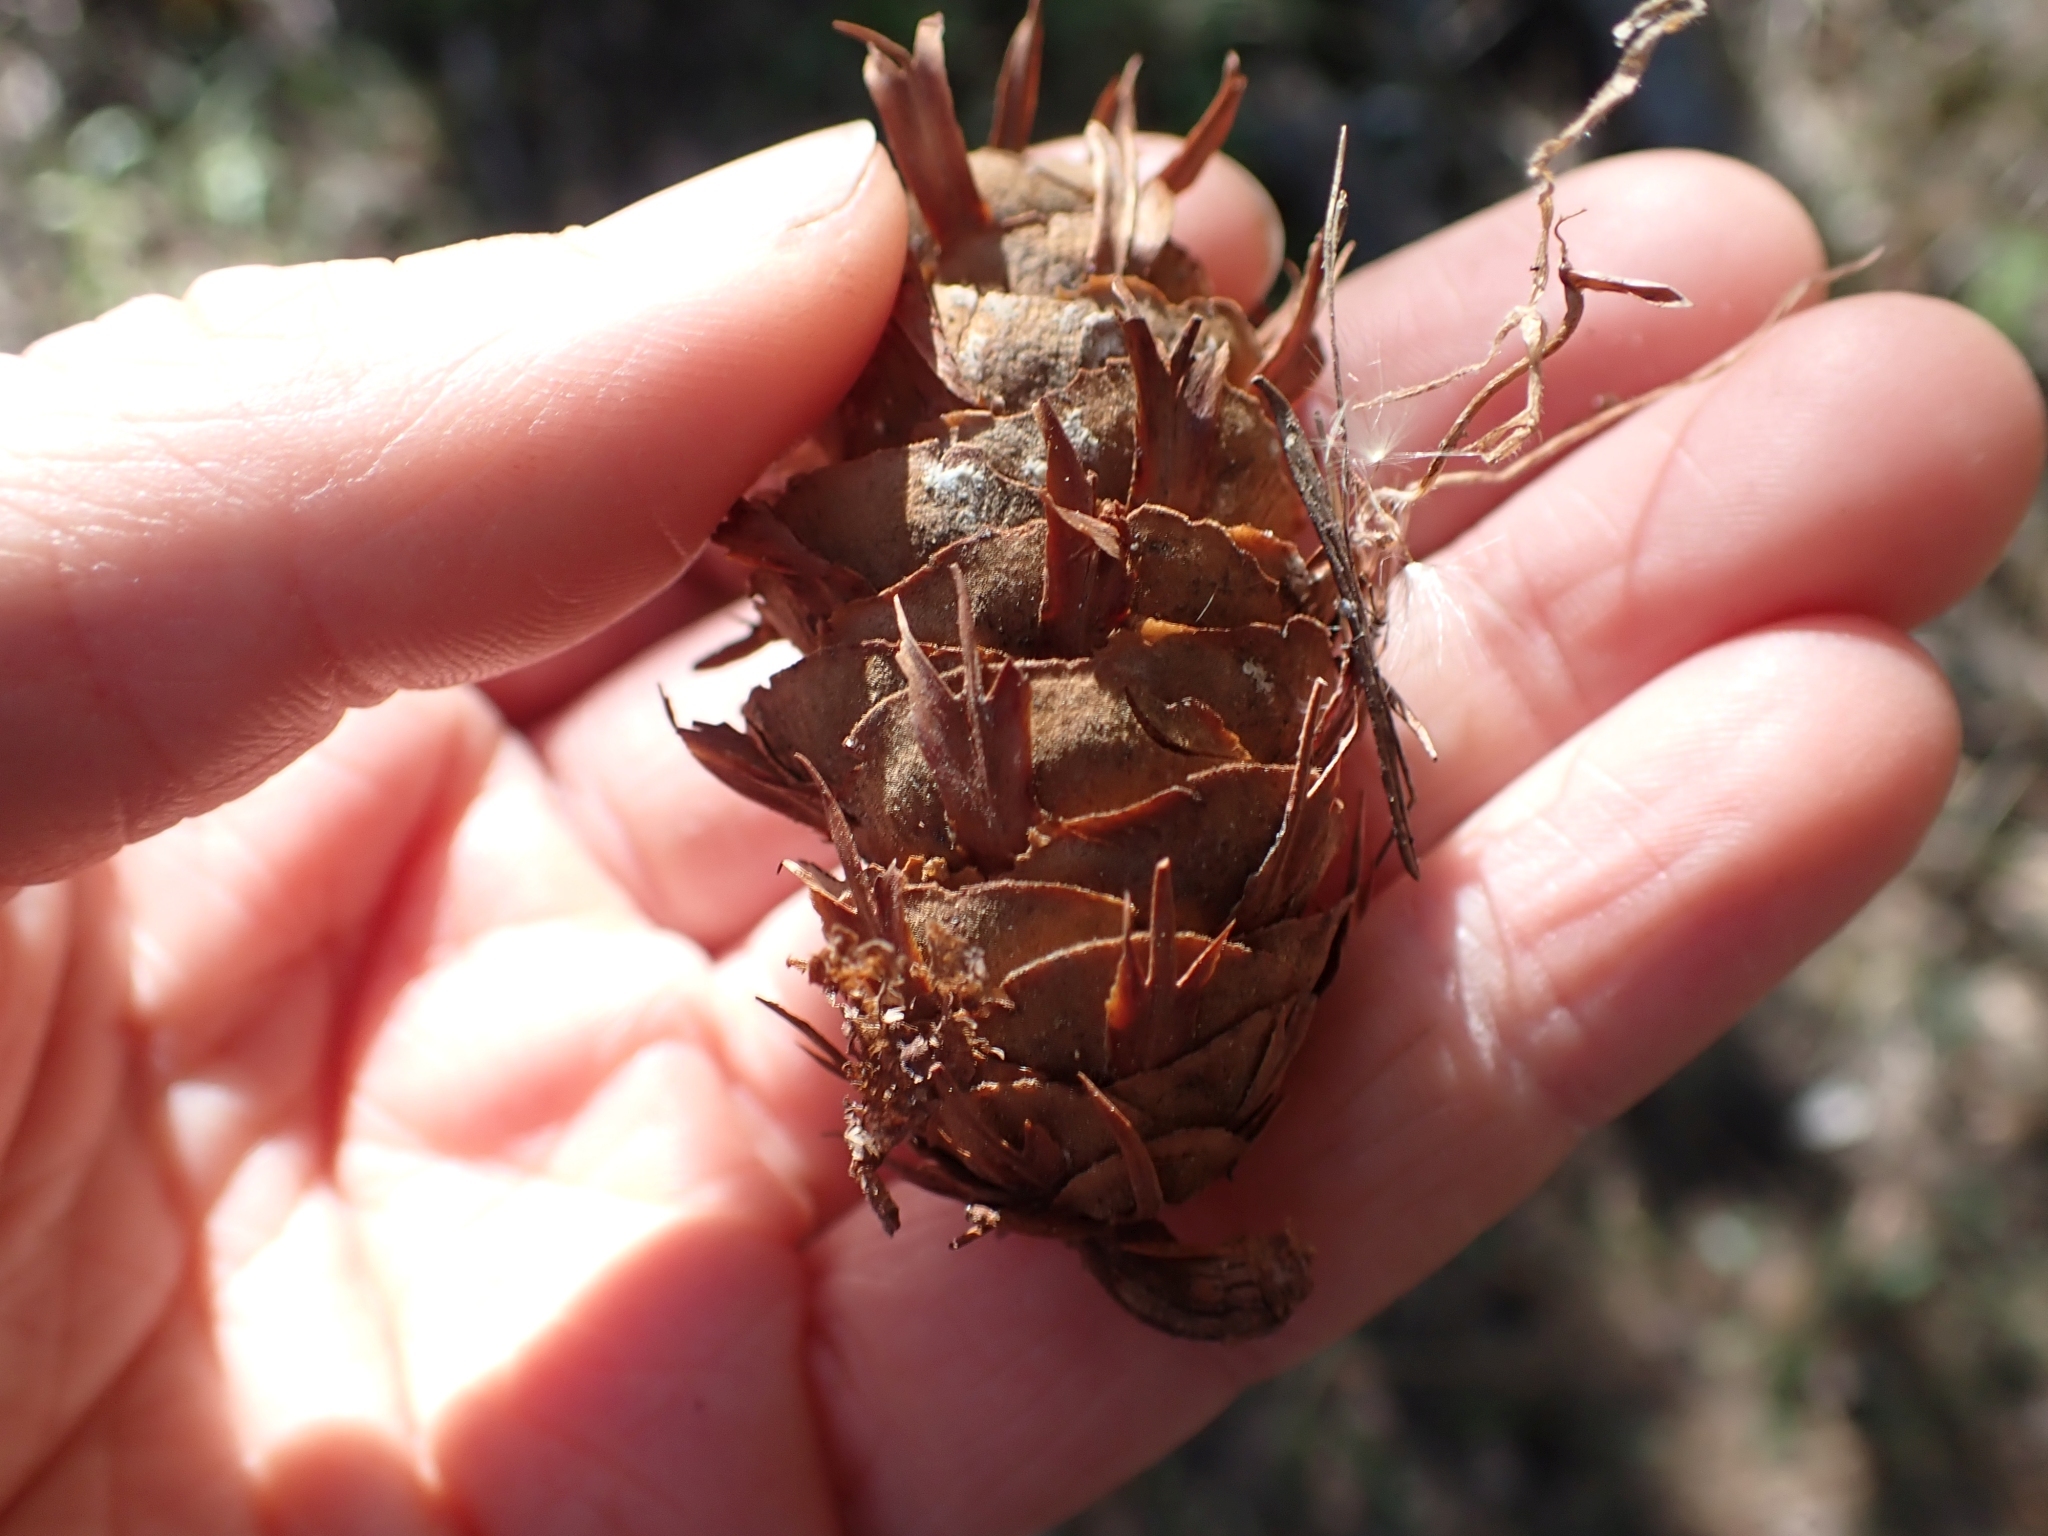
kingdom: Plantae
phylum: Tracheophyta
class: Pinopsida
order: Pinales
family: Pinaceae
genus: Pseudotsuga
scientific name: Pseudotsuga menziesii
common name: Douglas fir
